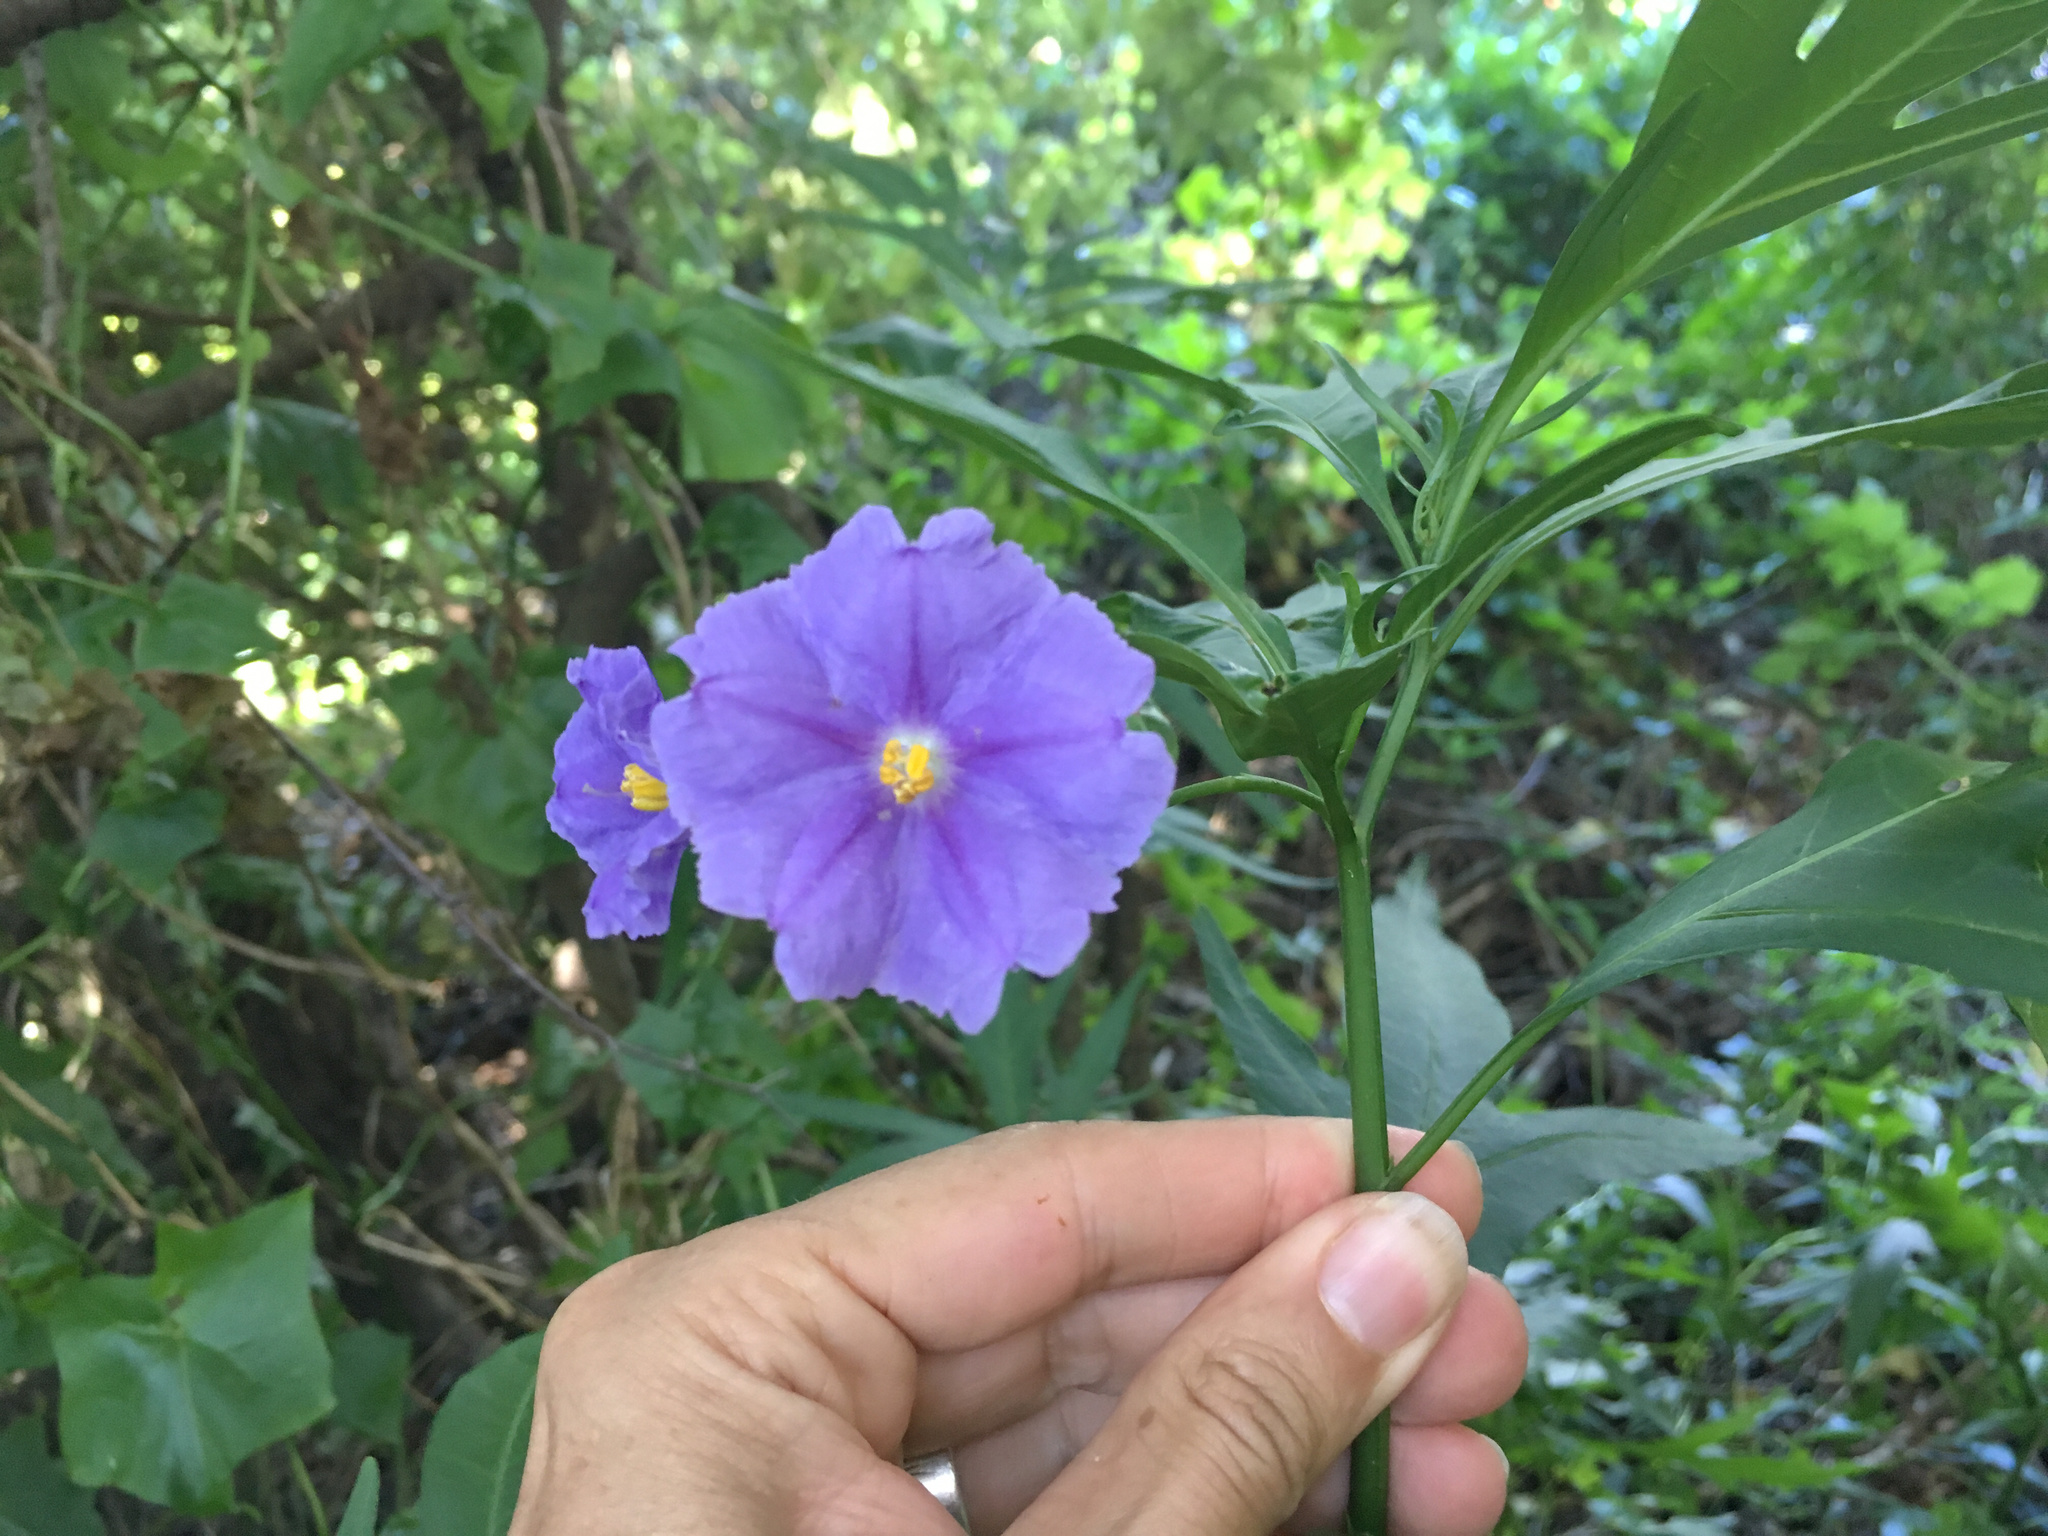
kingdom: Plantae
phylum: Tracheophyta
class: Magnoliopsida
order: Solanales
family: Solanaceae
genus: Solanum
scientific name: Solanum laciniatum
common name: Kangaroo-apple
